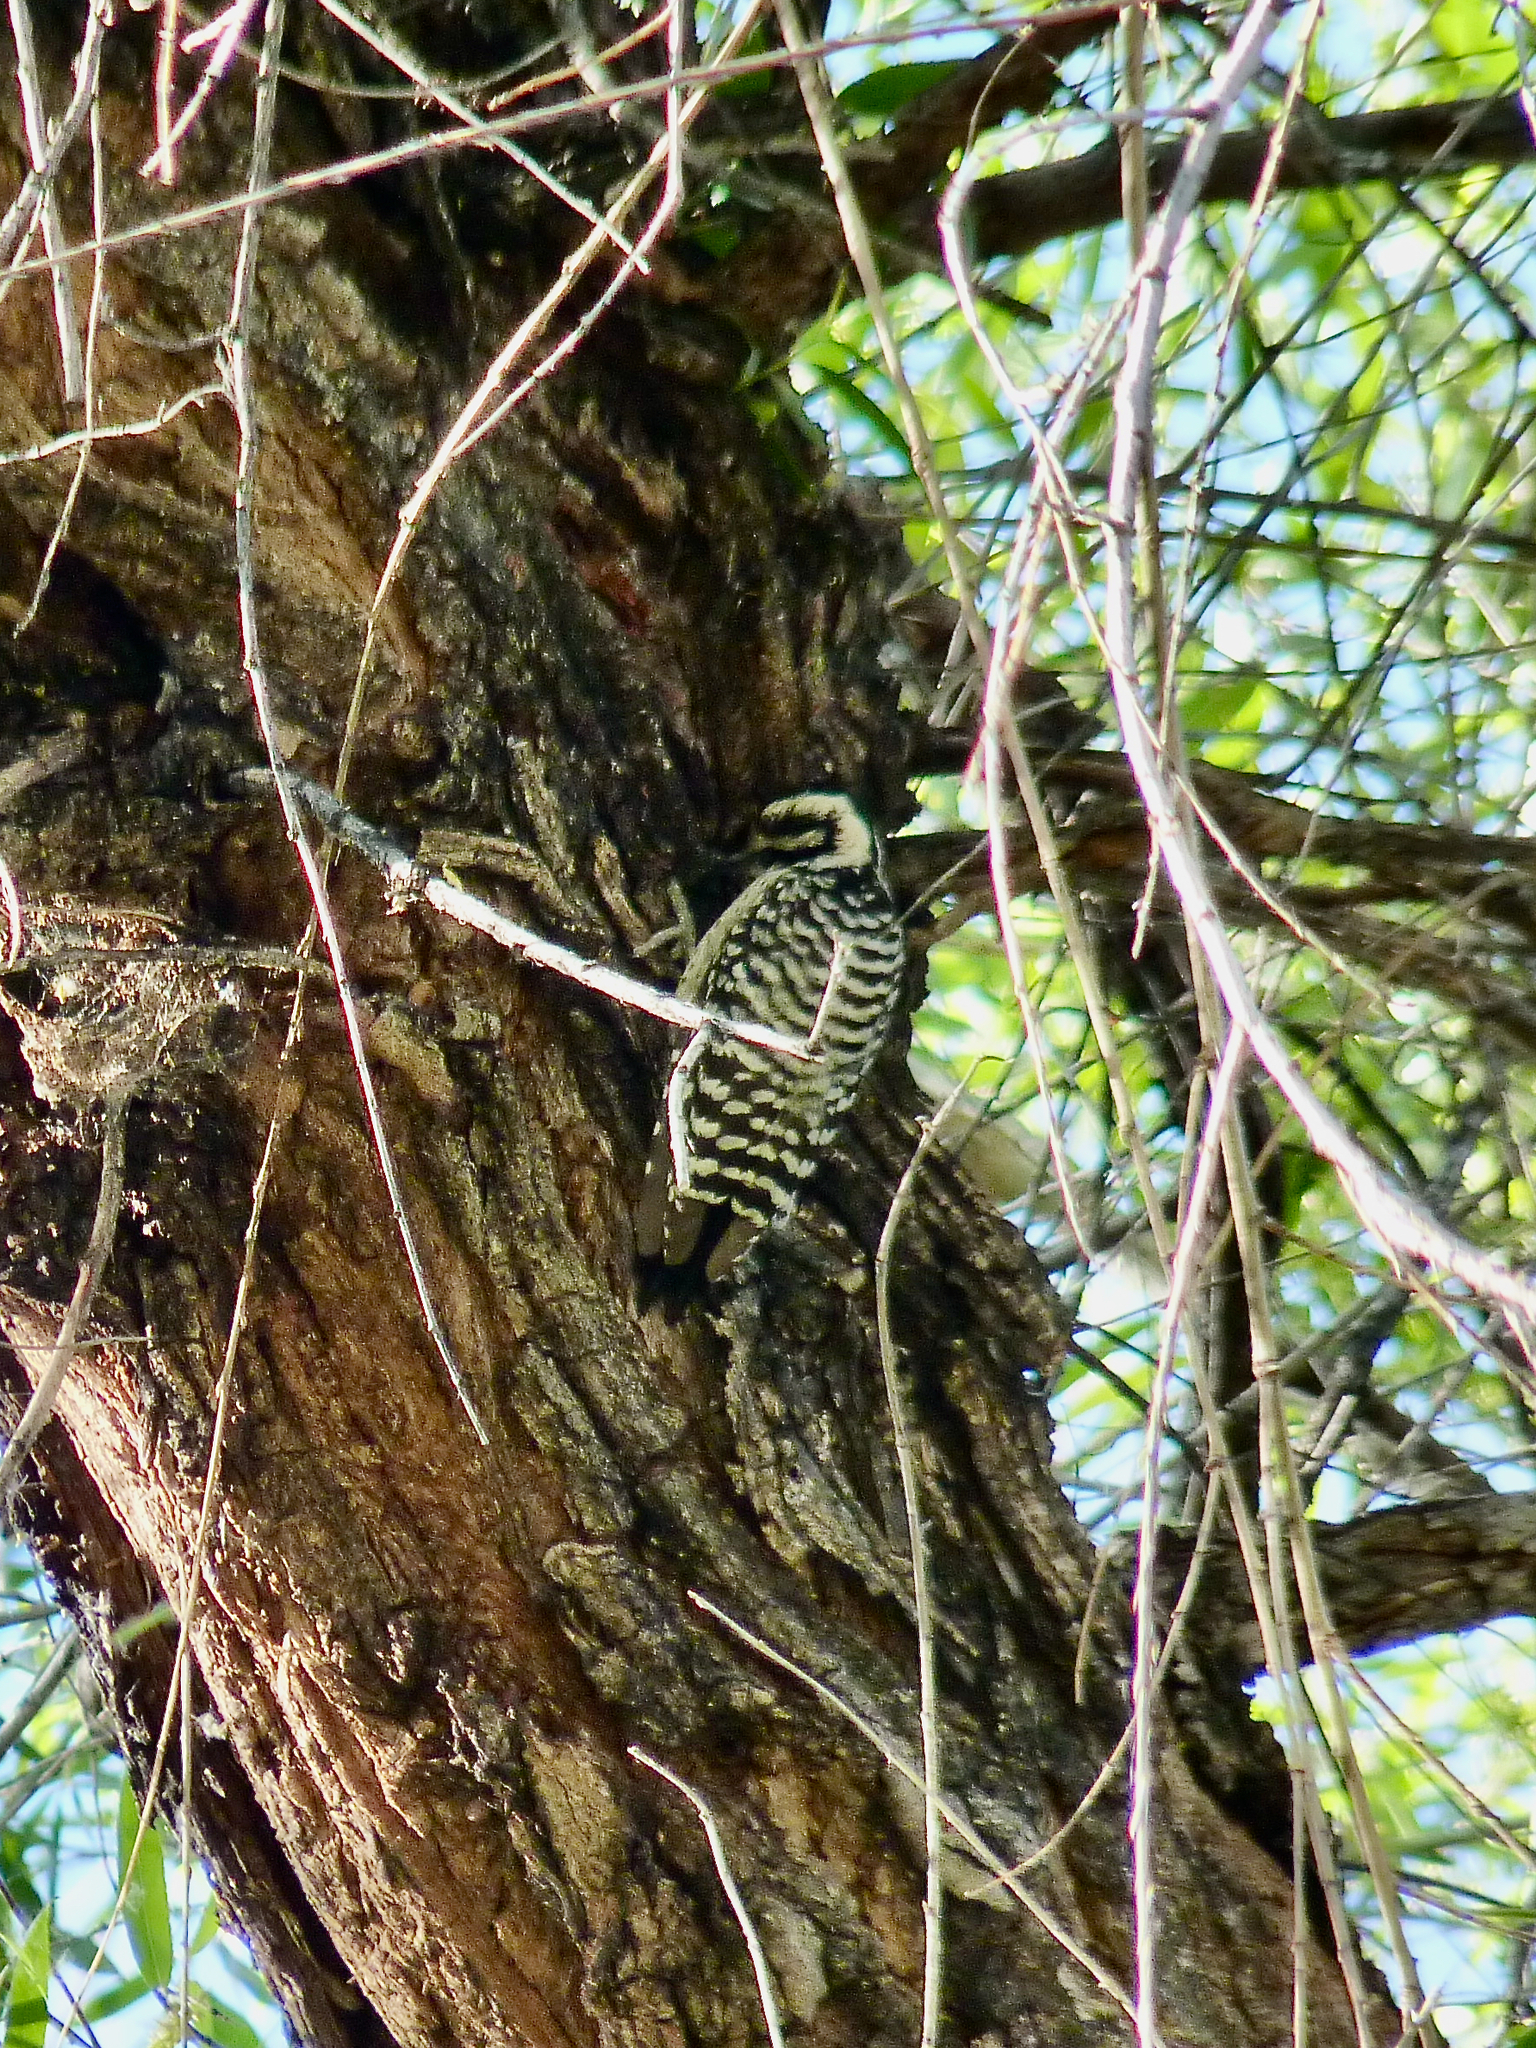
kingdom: Animalia
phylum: Chordata
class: Aves
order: Piciformes
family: Picidae
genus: Dryobates
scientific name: Dryobates scalaris
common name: Ladder-backed woodpecker
